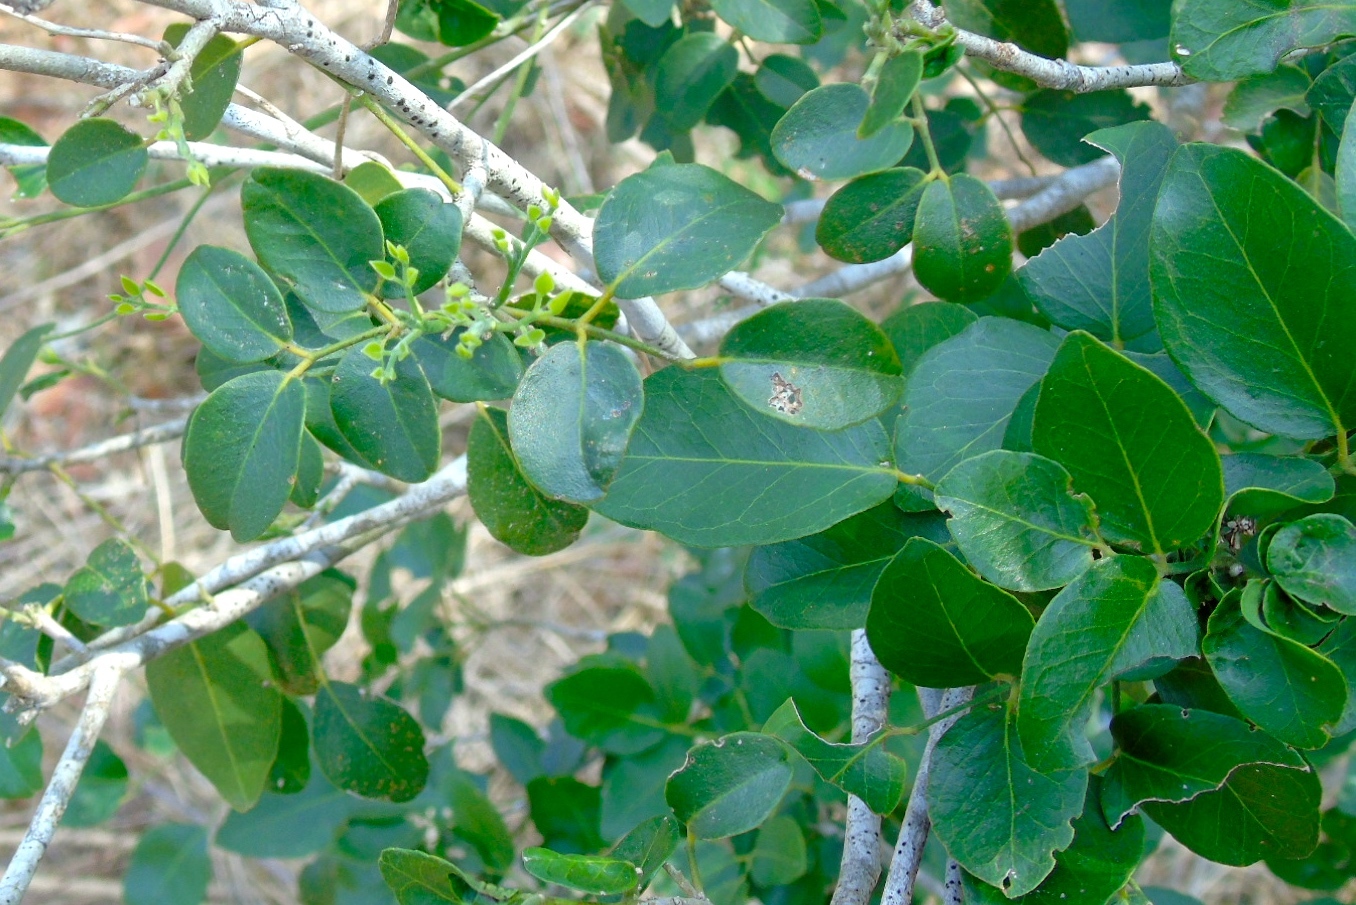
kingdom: Plantae
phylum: Tracheophyta
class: Magnoliopsida
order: Sapindales
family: Rutaceae
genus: Amyris
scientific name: Amyris balsamifera
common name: Balsam amyris
